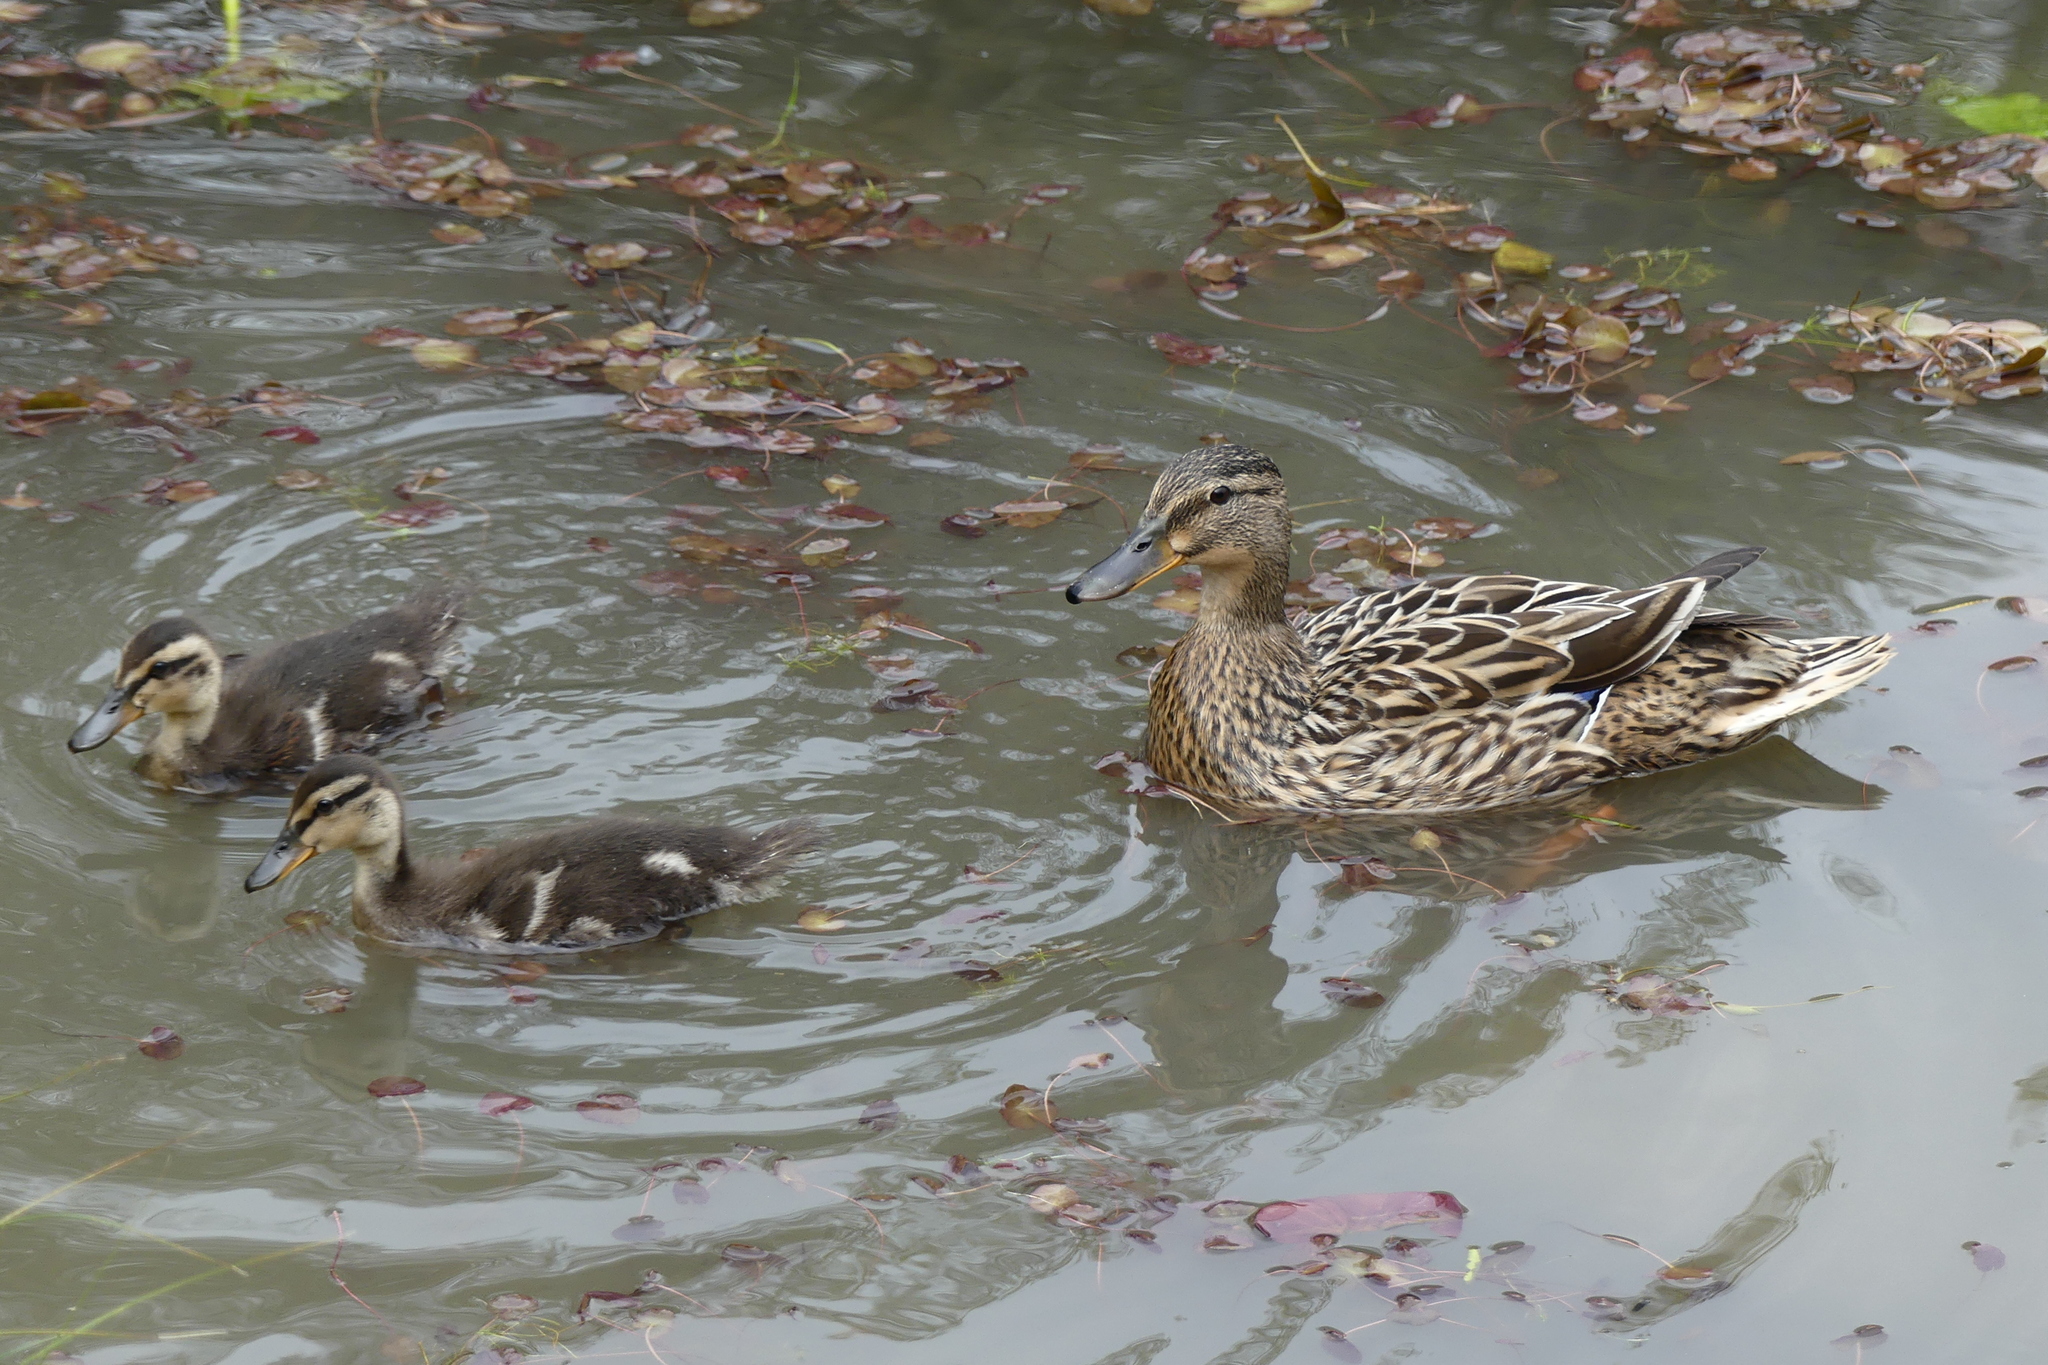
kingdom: Animalia
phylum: Chordata
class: Aves
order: Anseriformes
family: Anatidae
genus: Anas
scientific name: Anas platyrhynchos
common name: Mallard
